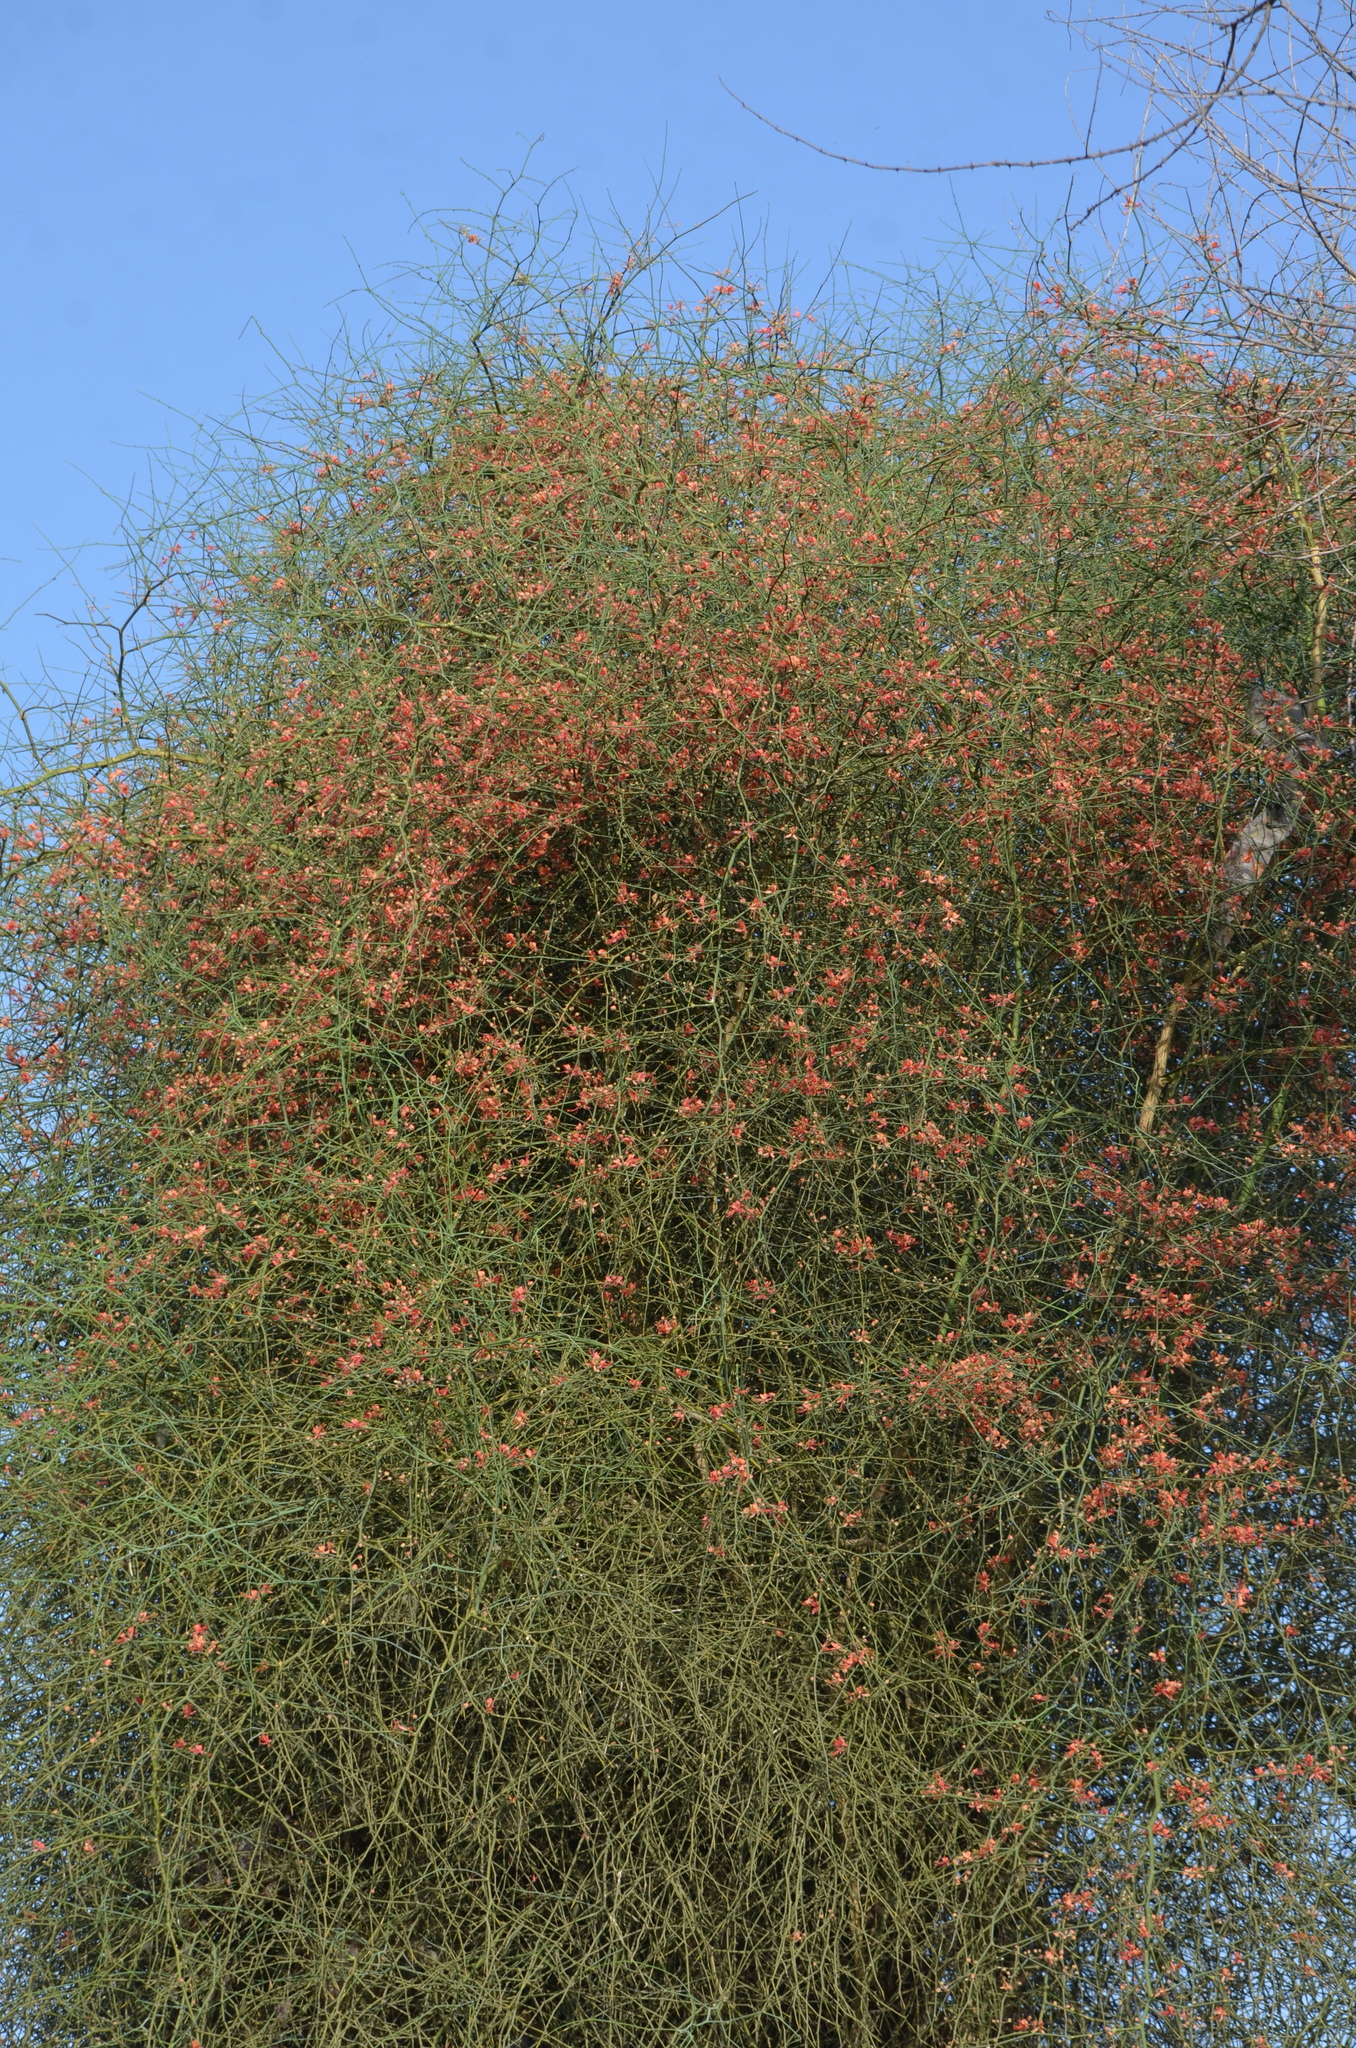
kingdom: Plantae
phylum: Tracheophyta
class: Magnoliopsida
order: Brassicales
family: Capparaceae
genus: Capparis
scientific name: Capparis decidua
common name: Sodada
